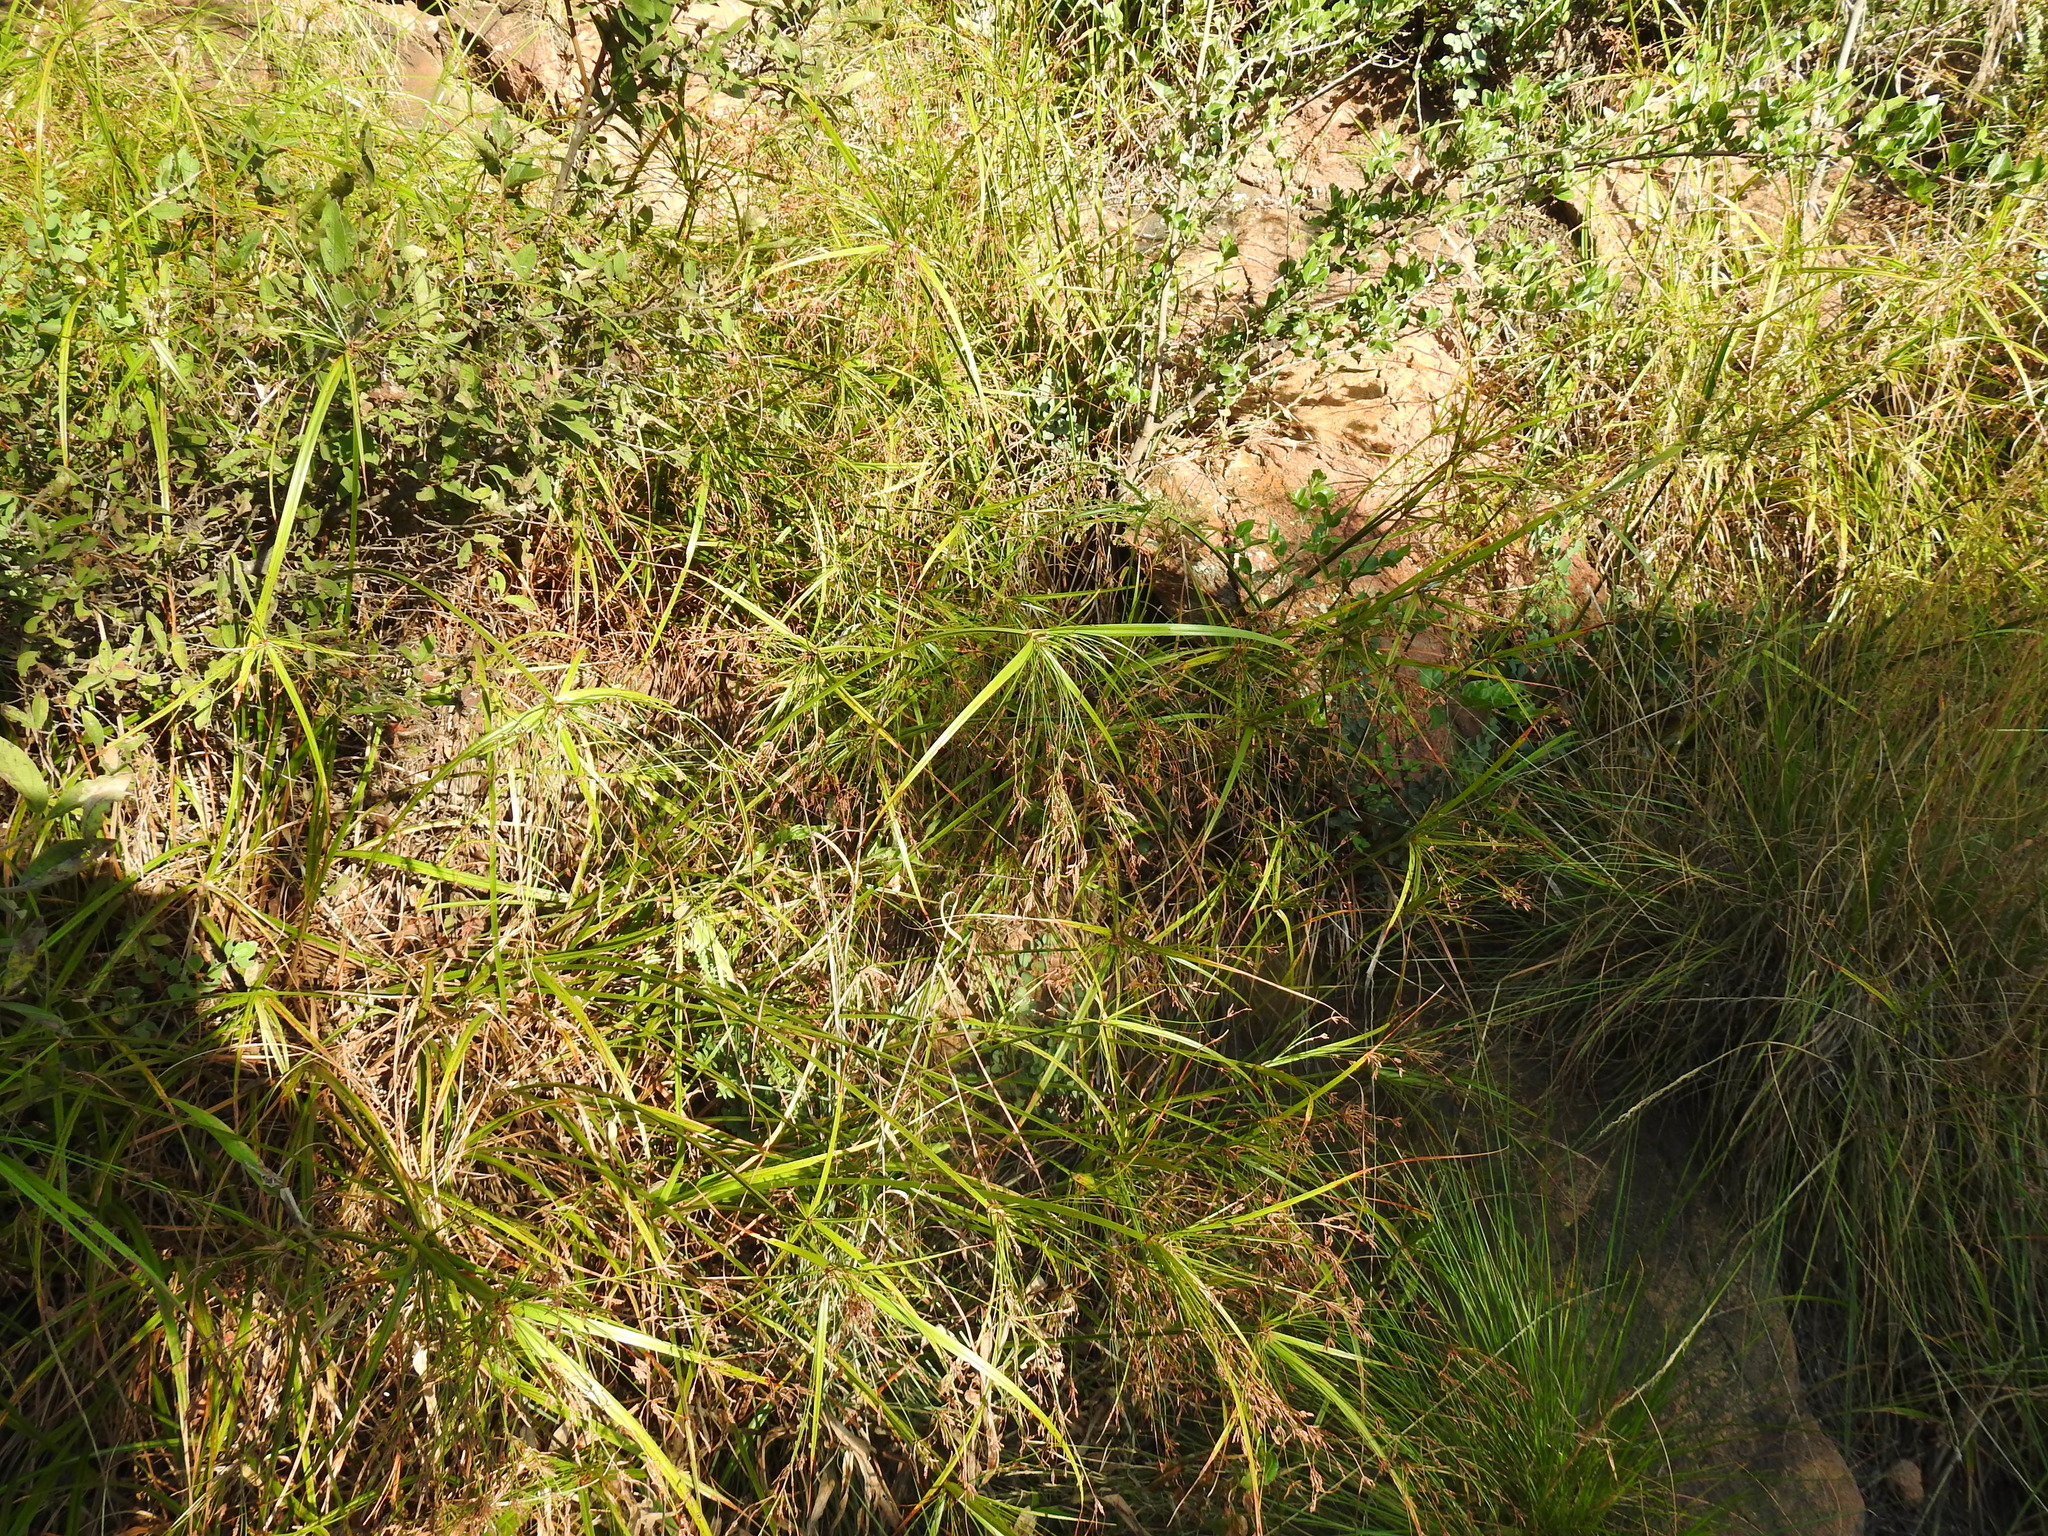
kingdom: Plantae
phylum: Tracheophyta
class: Liliopsida
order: Poales
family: Cyperaceae
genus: Cyperus
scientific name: Cyperus leptocladus
